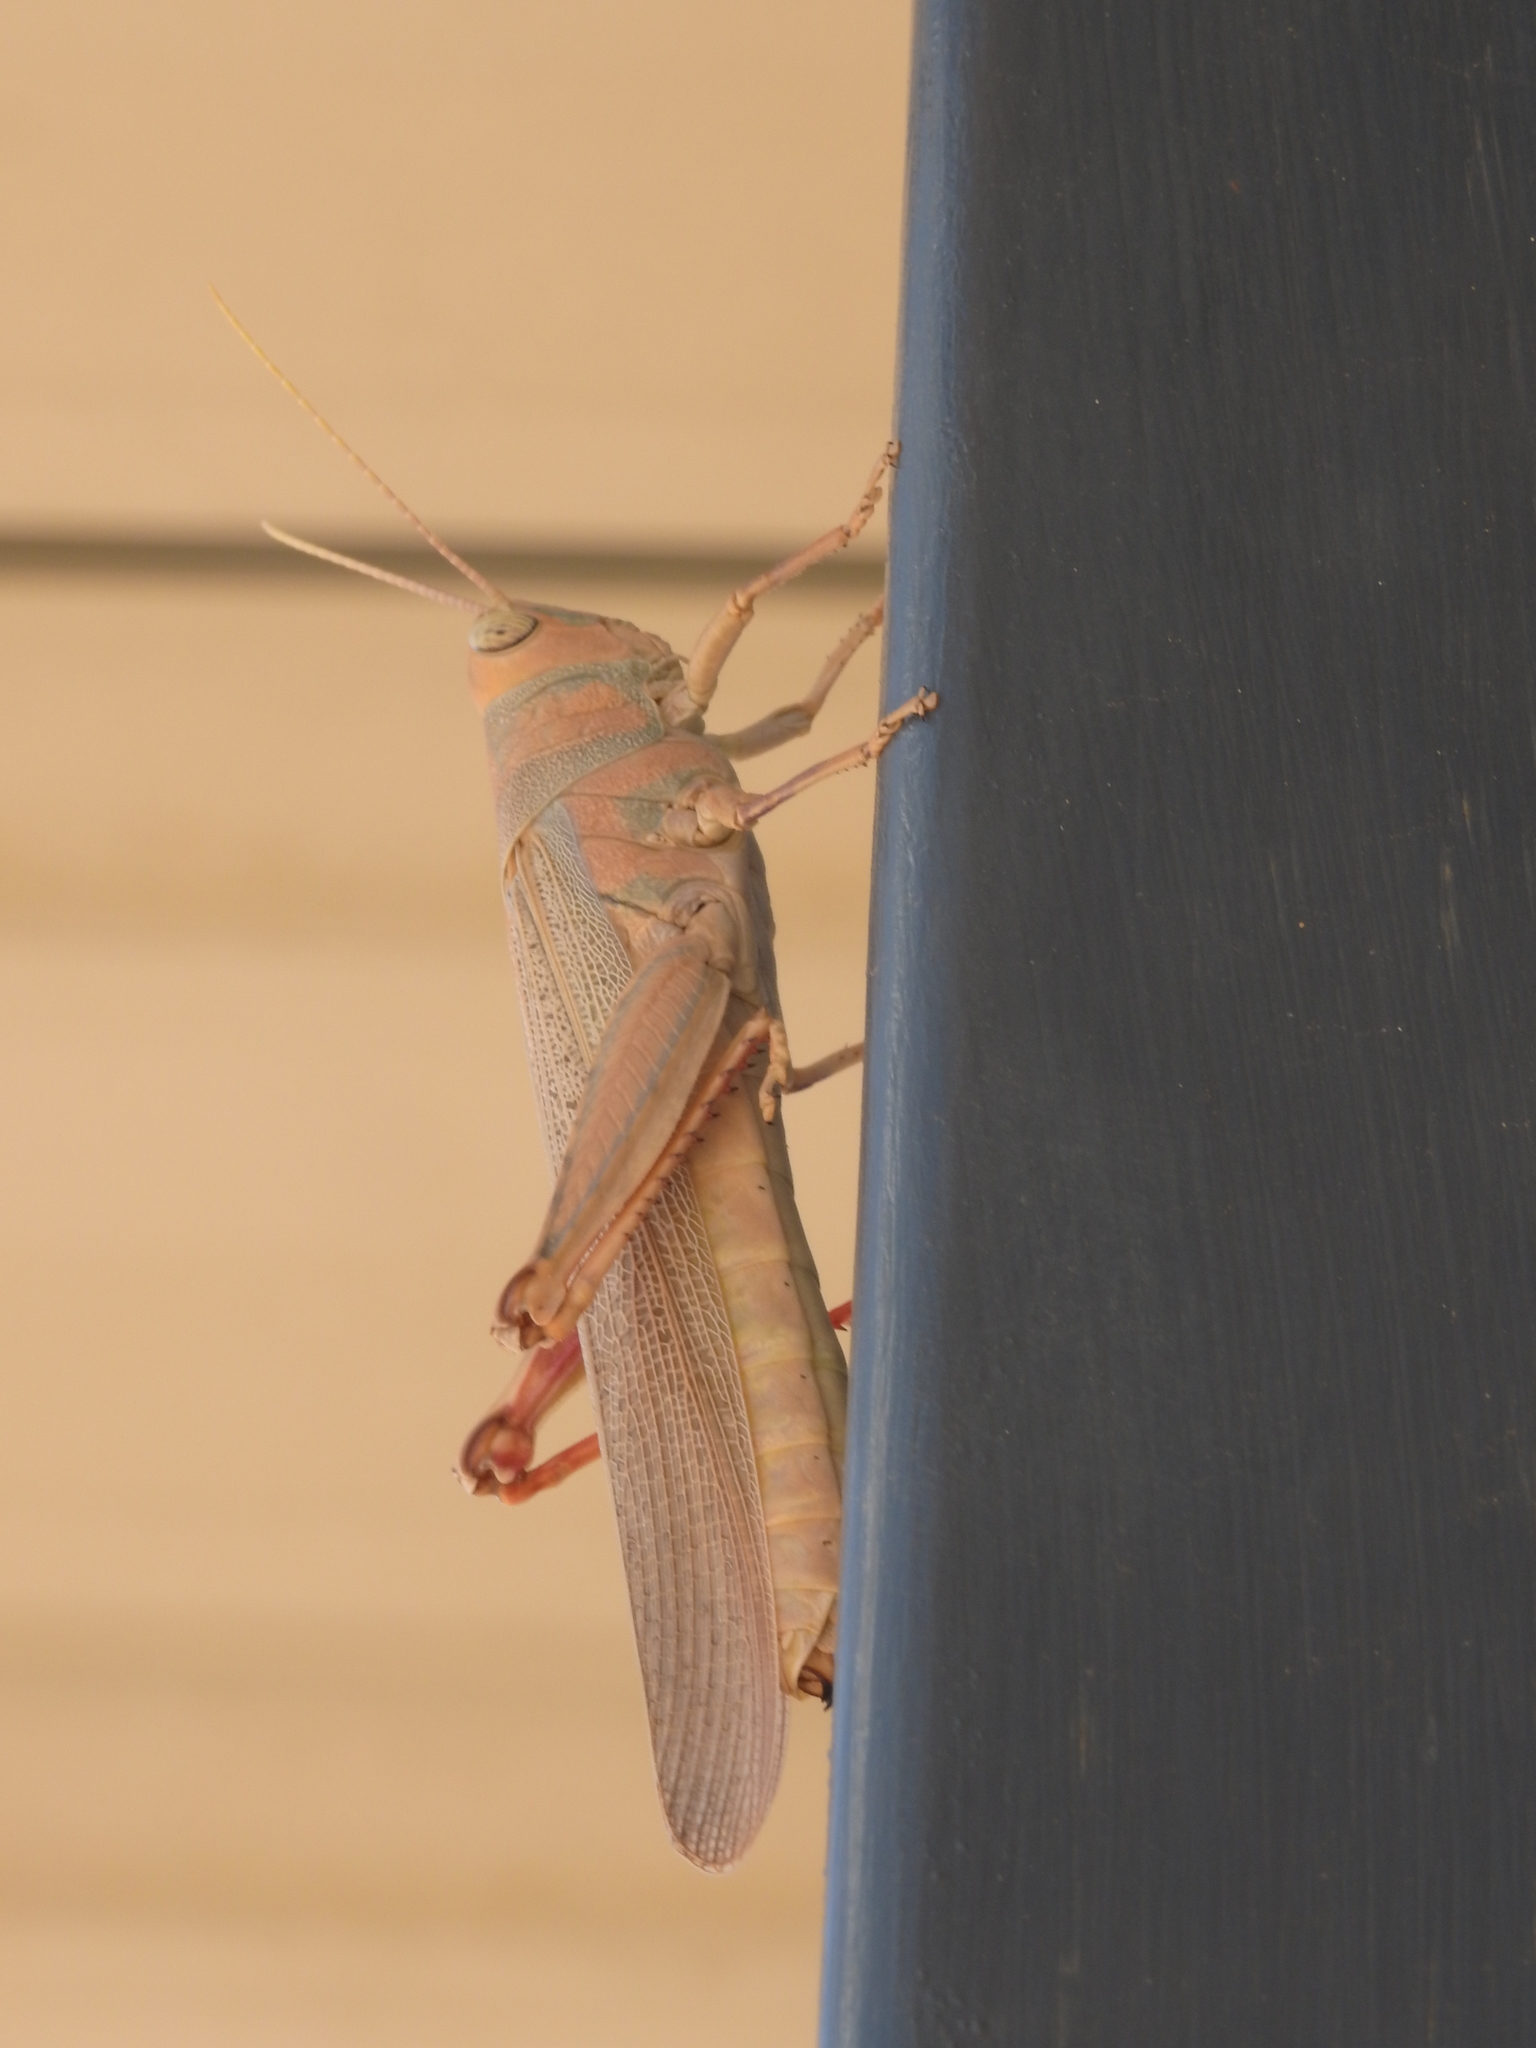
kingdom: Animalia
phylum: Arthropoda
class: Insecta
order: Orthoptera
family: Acrididae
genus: Pardillana
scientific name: Pardillana limbata
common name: Common pardillana
